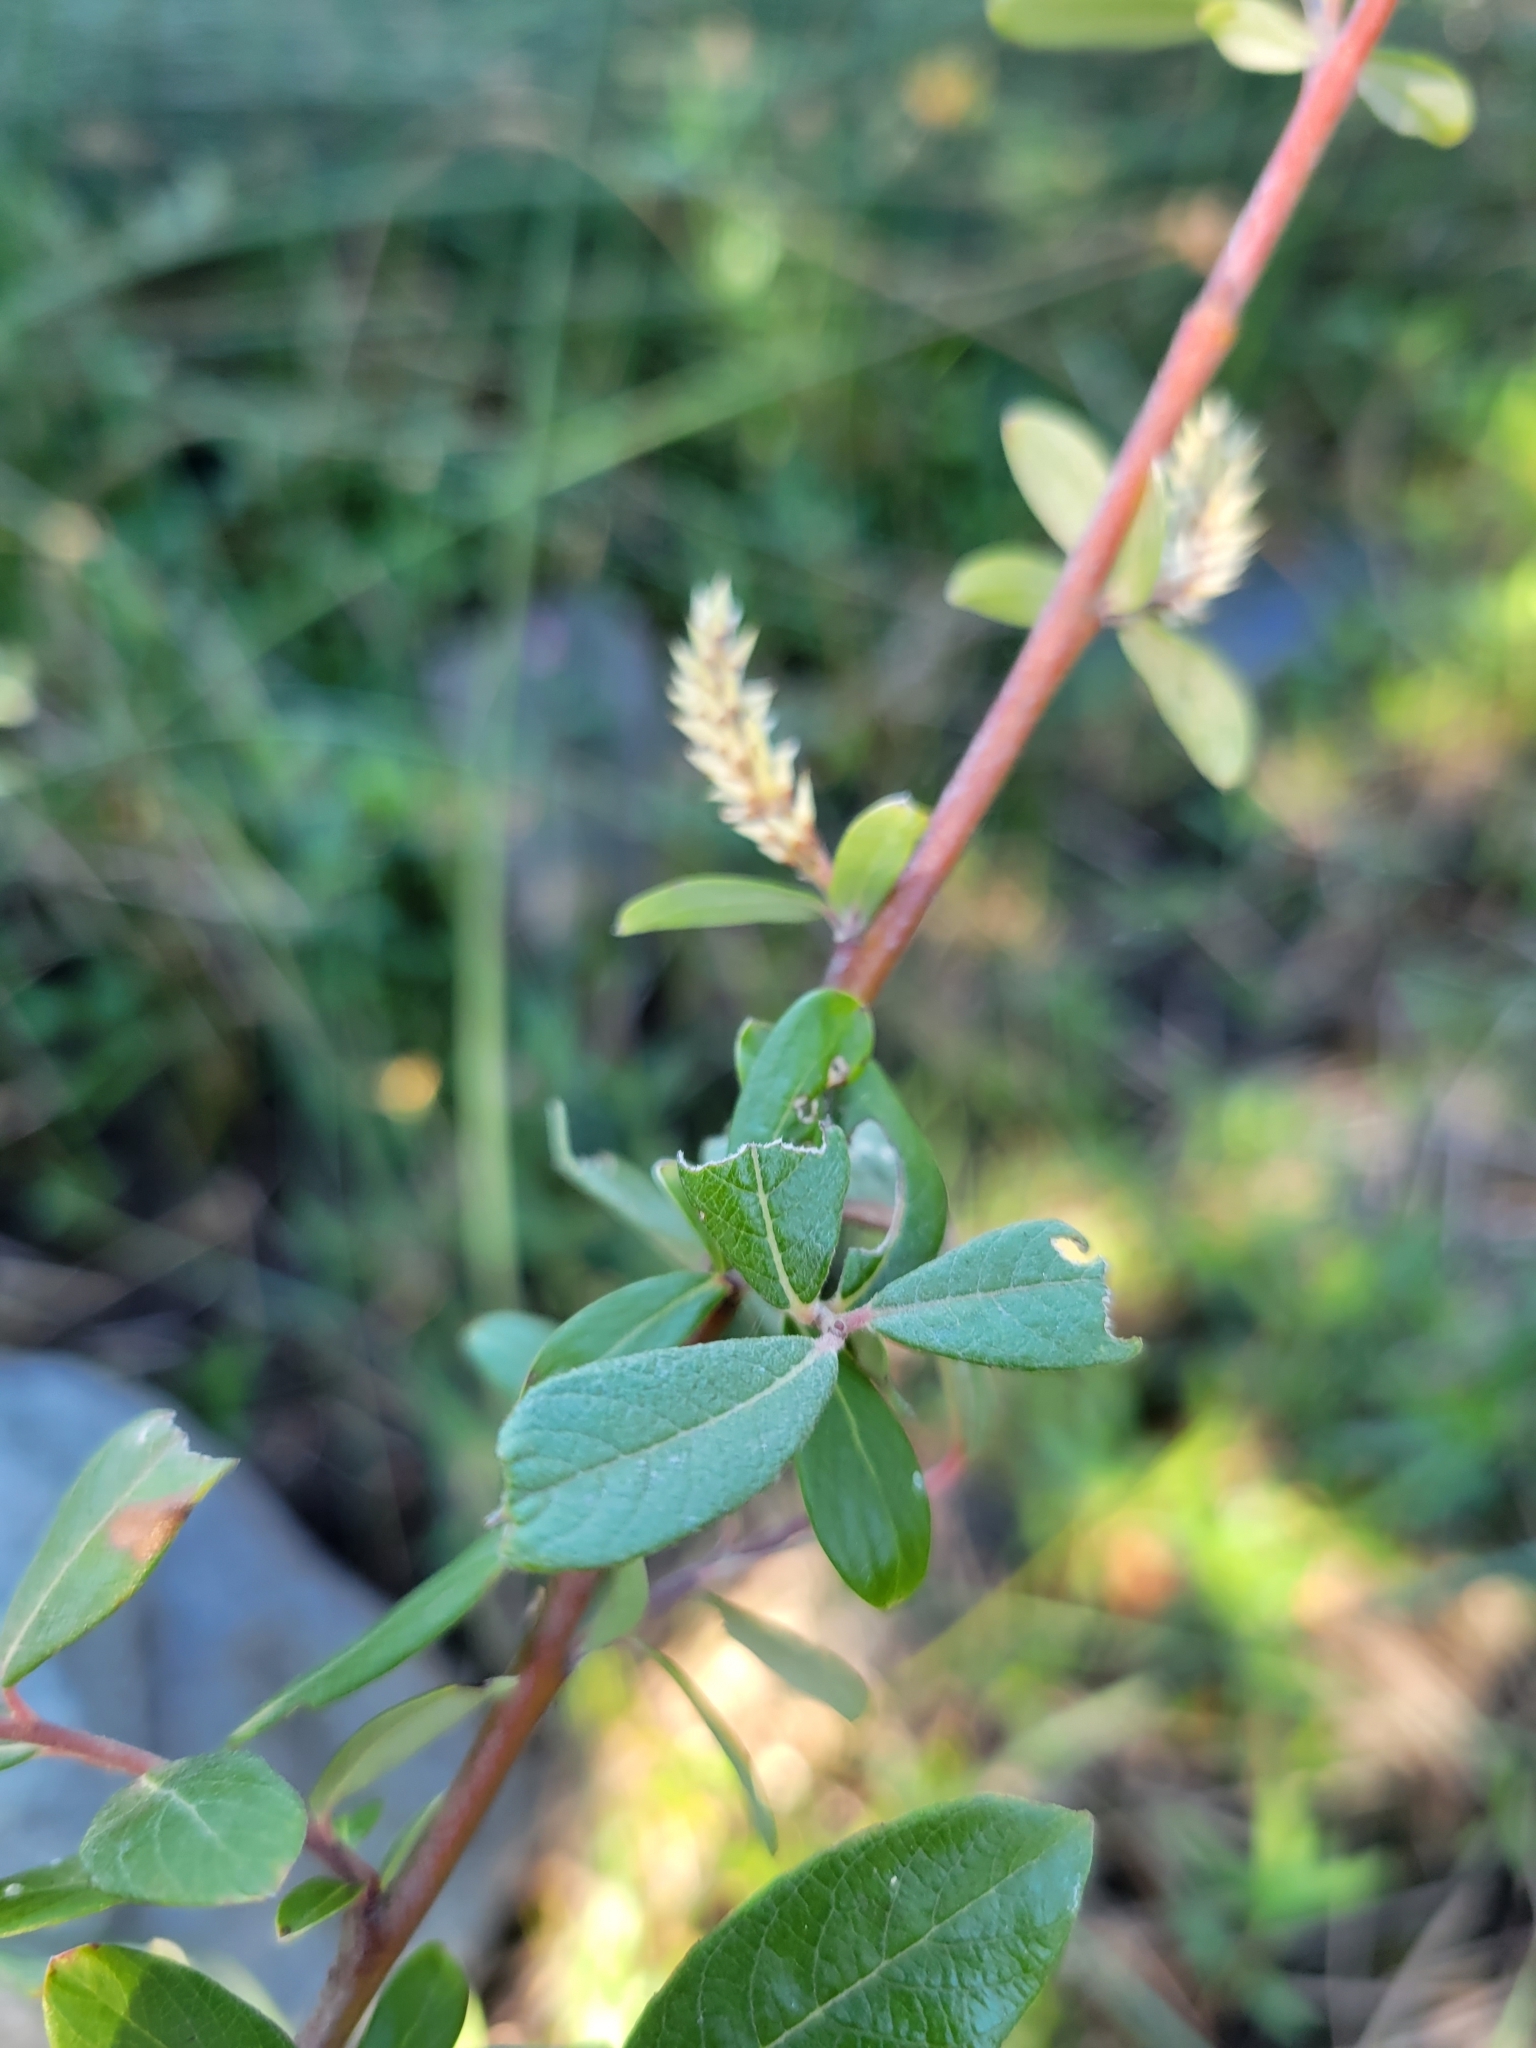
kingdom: Plantae
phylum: Tracheophyta
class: Magnoliopsida
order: Malpighiales
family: Salicaceae
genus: Salix
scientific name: Salix sitchensis
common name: Sitka willow
